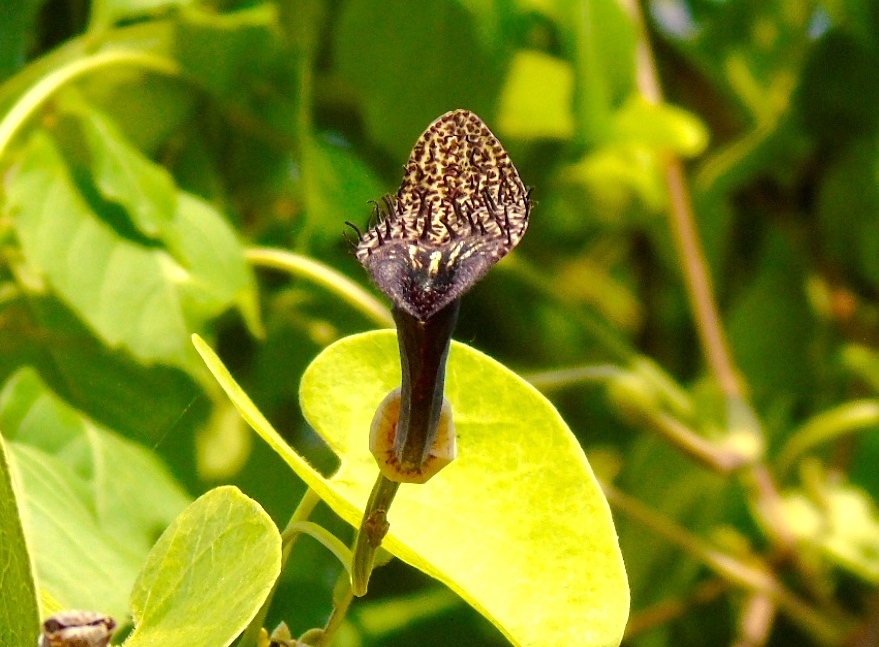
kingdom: Plantae
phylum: Tracheophyta
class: Magnoliopsida
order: Piperales
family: Aristolochiaceae
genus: Aristolochia
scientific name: Aristolochia taliscana
